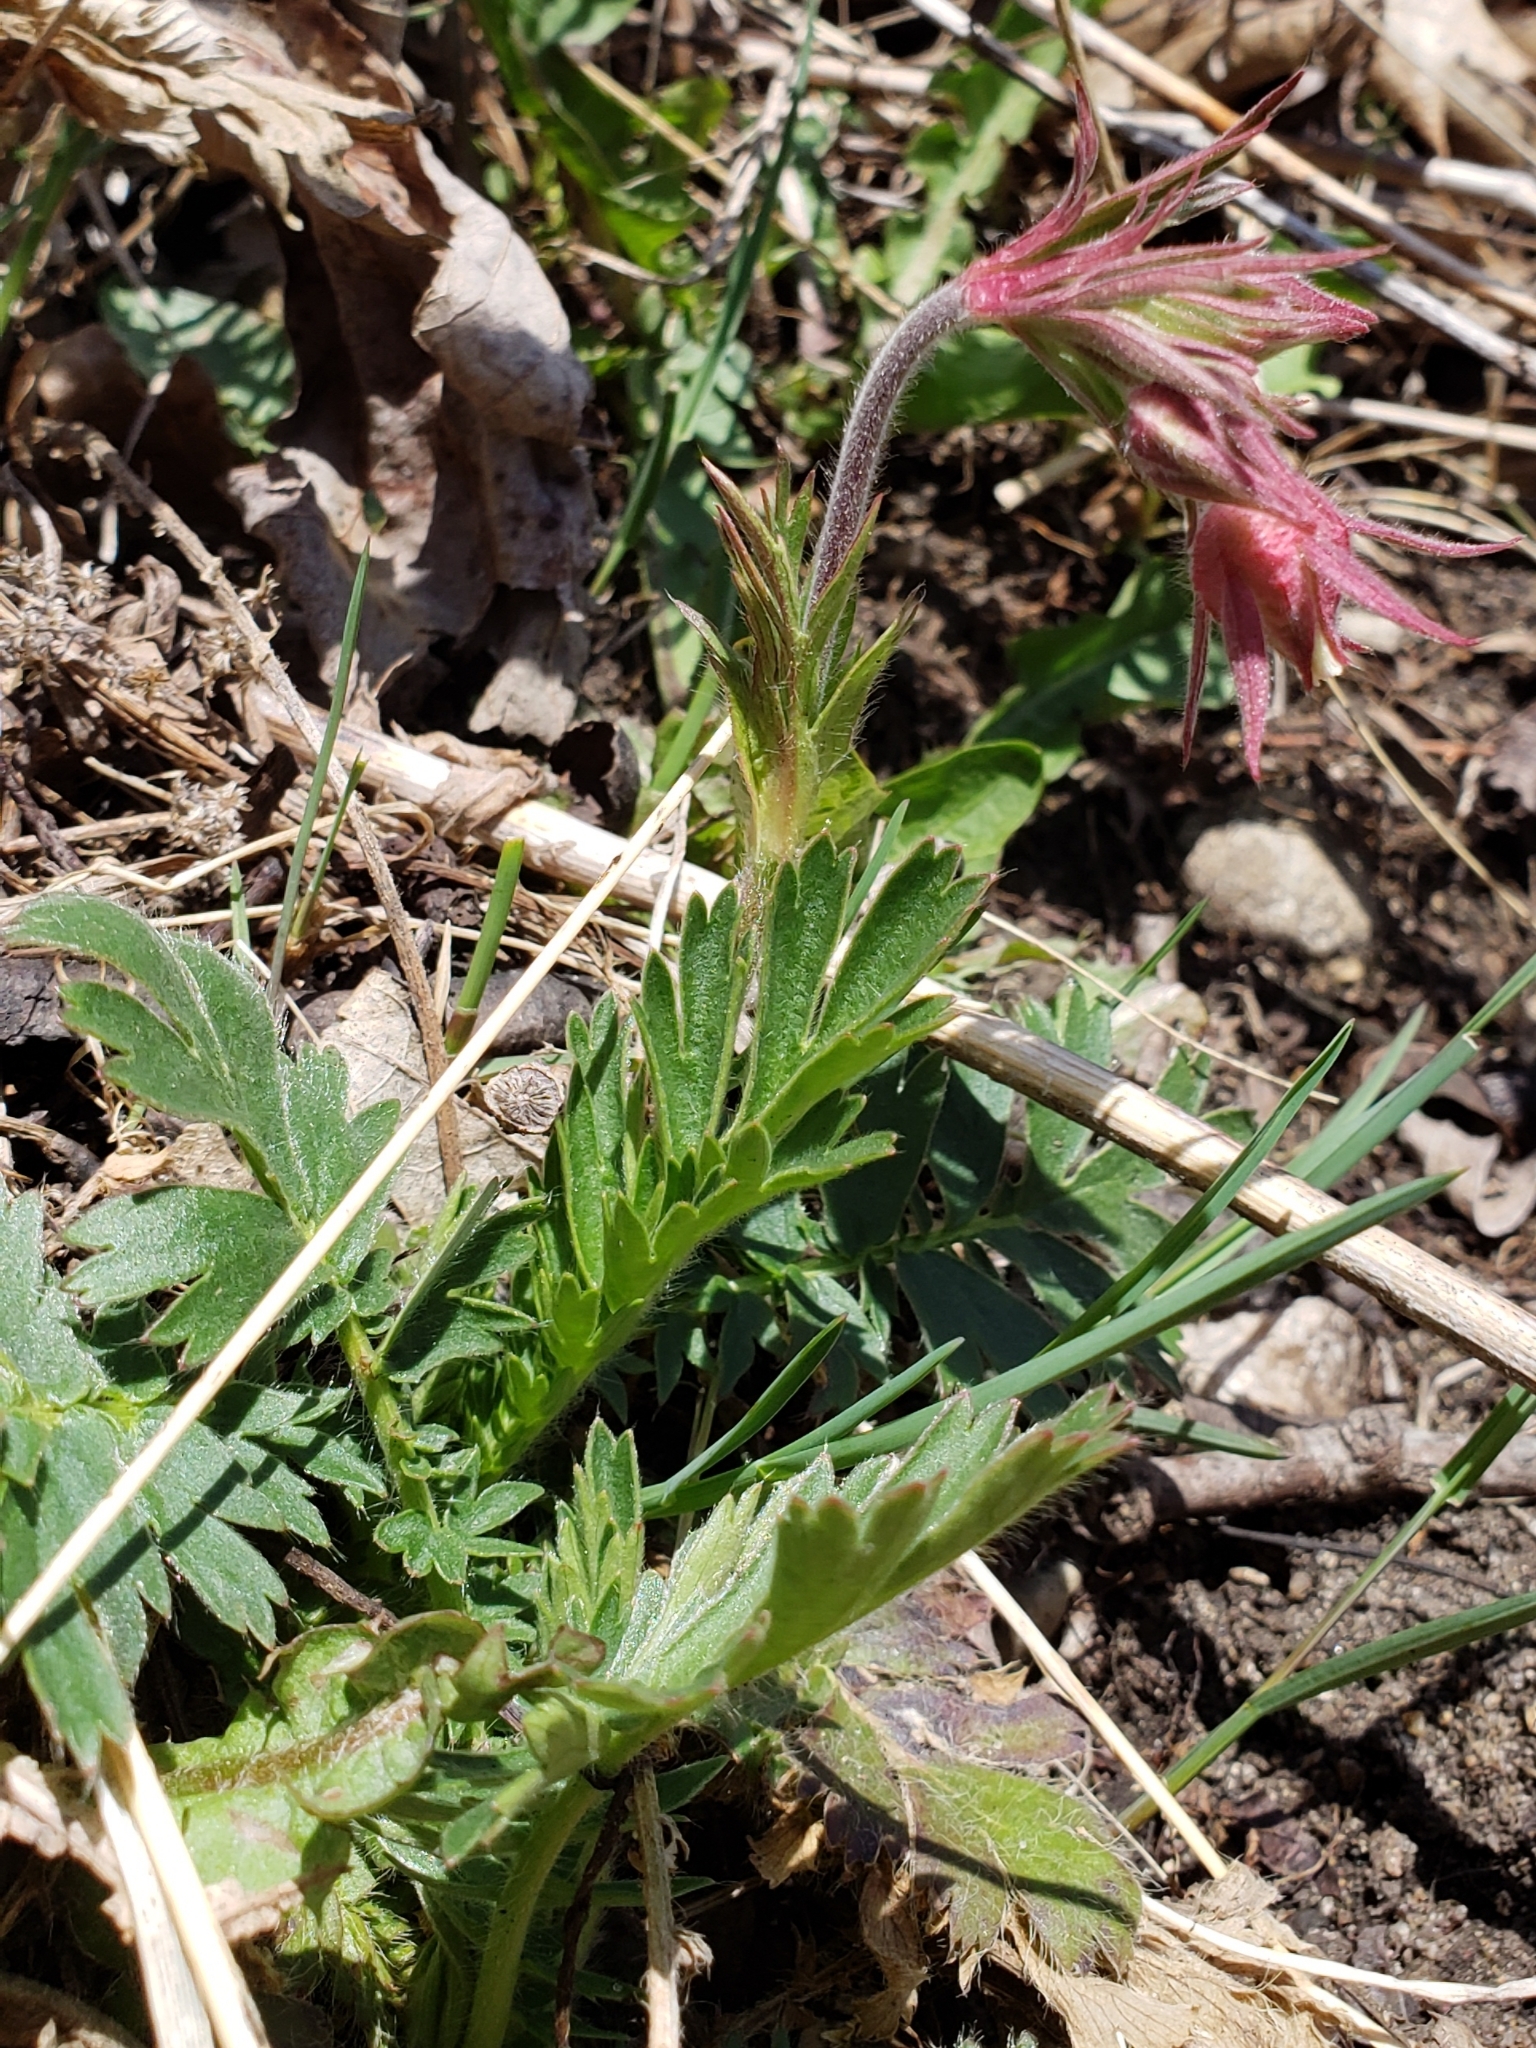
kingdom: Plantae
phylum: Tracheophyta
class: Magnoliopsida
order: Rosales
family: Rosaceae
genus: Geum
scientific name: Geum triflorum
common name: Old man's whiskers
